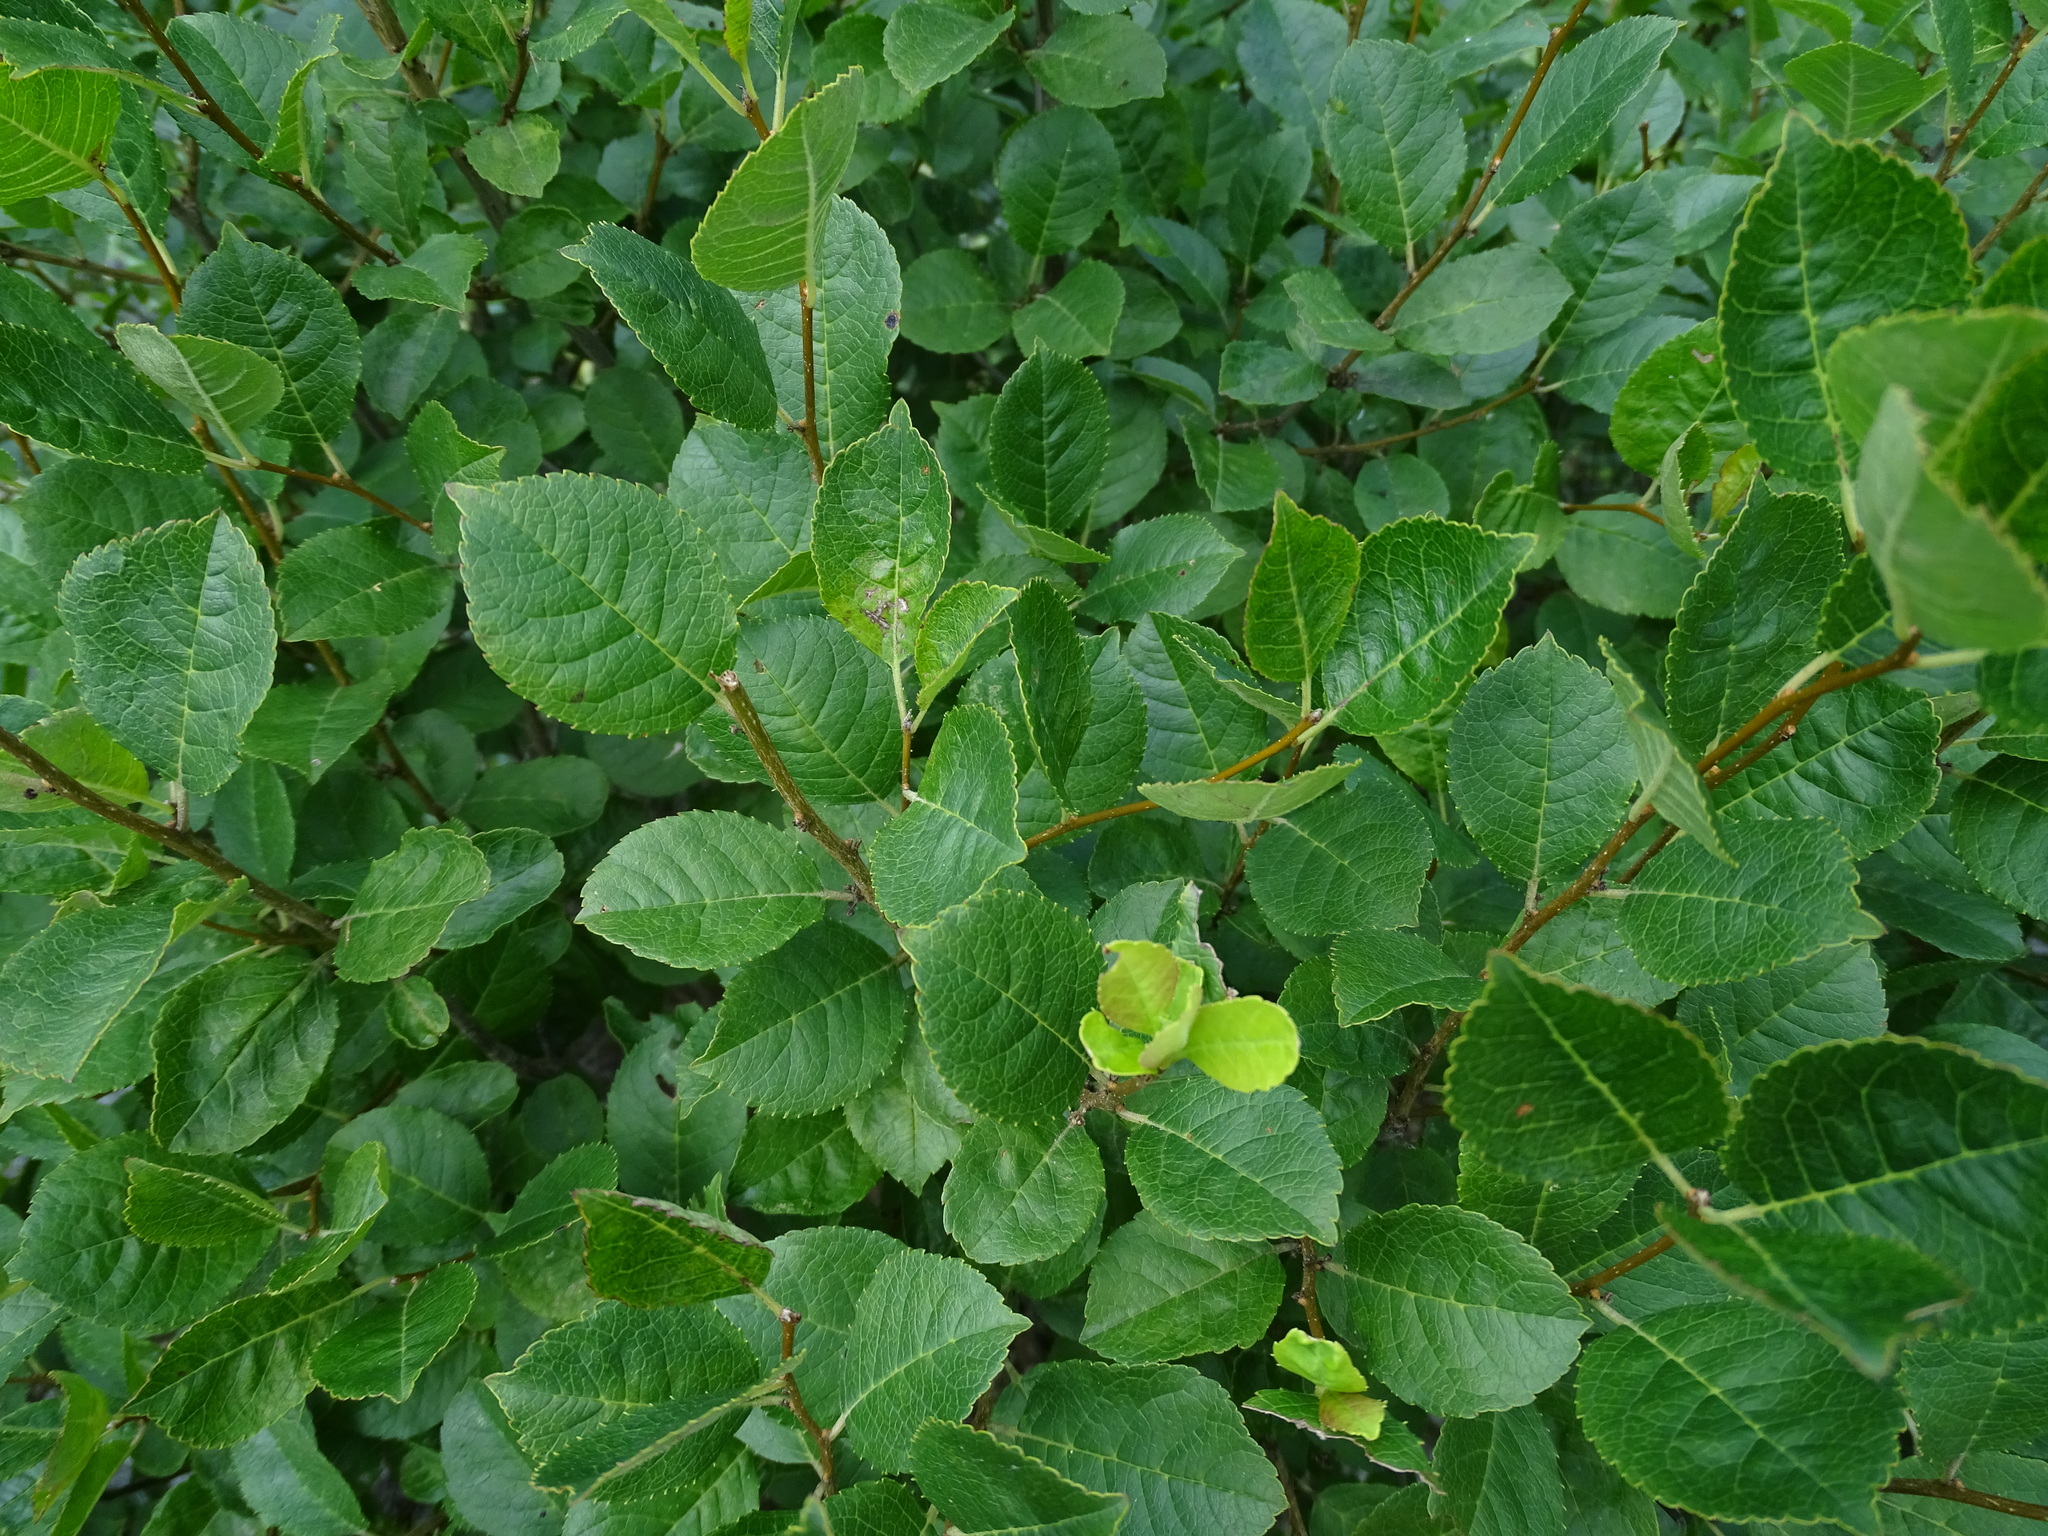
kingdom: Plantae
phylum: Tracheophyta
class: Magnoliopsida
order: Aquifoliales
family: Aquifoliaceae
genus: Ilex
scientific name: Ilex verticillata
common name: Virginia winterberry
